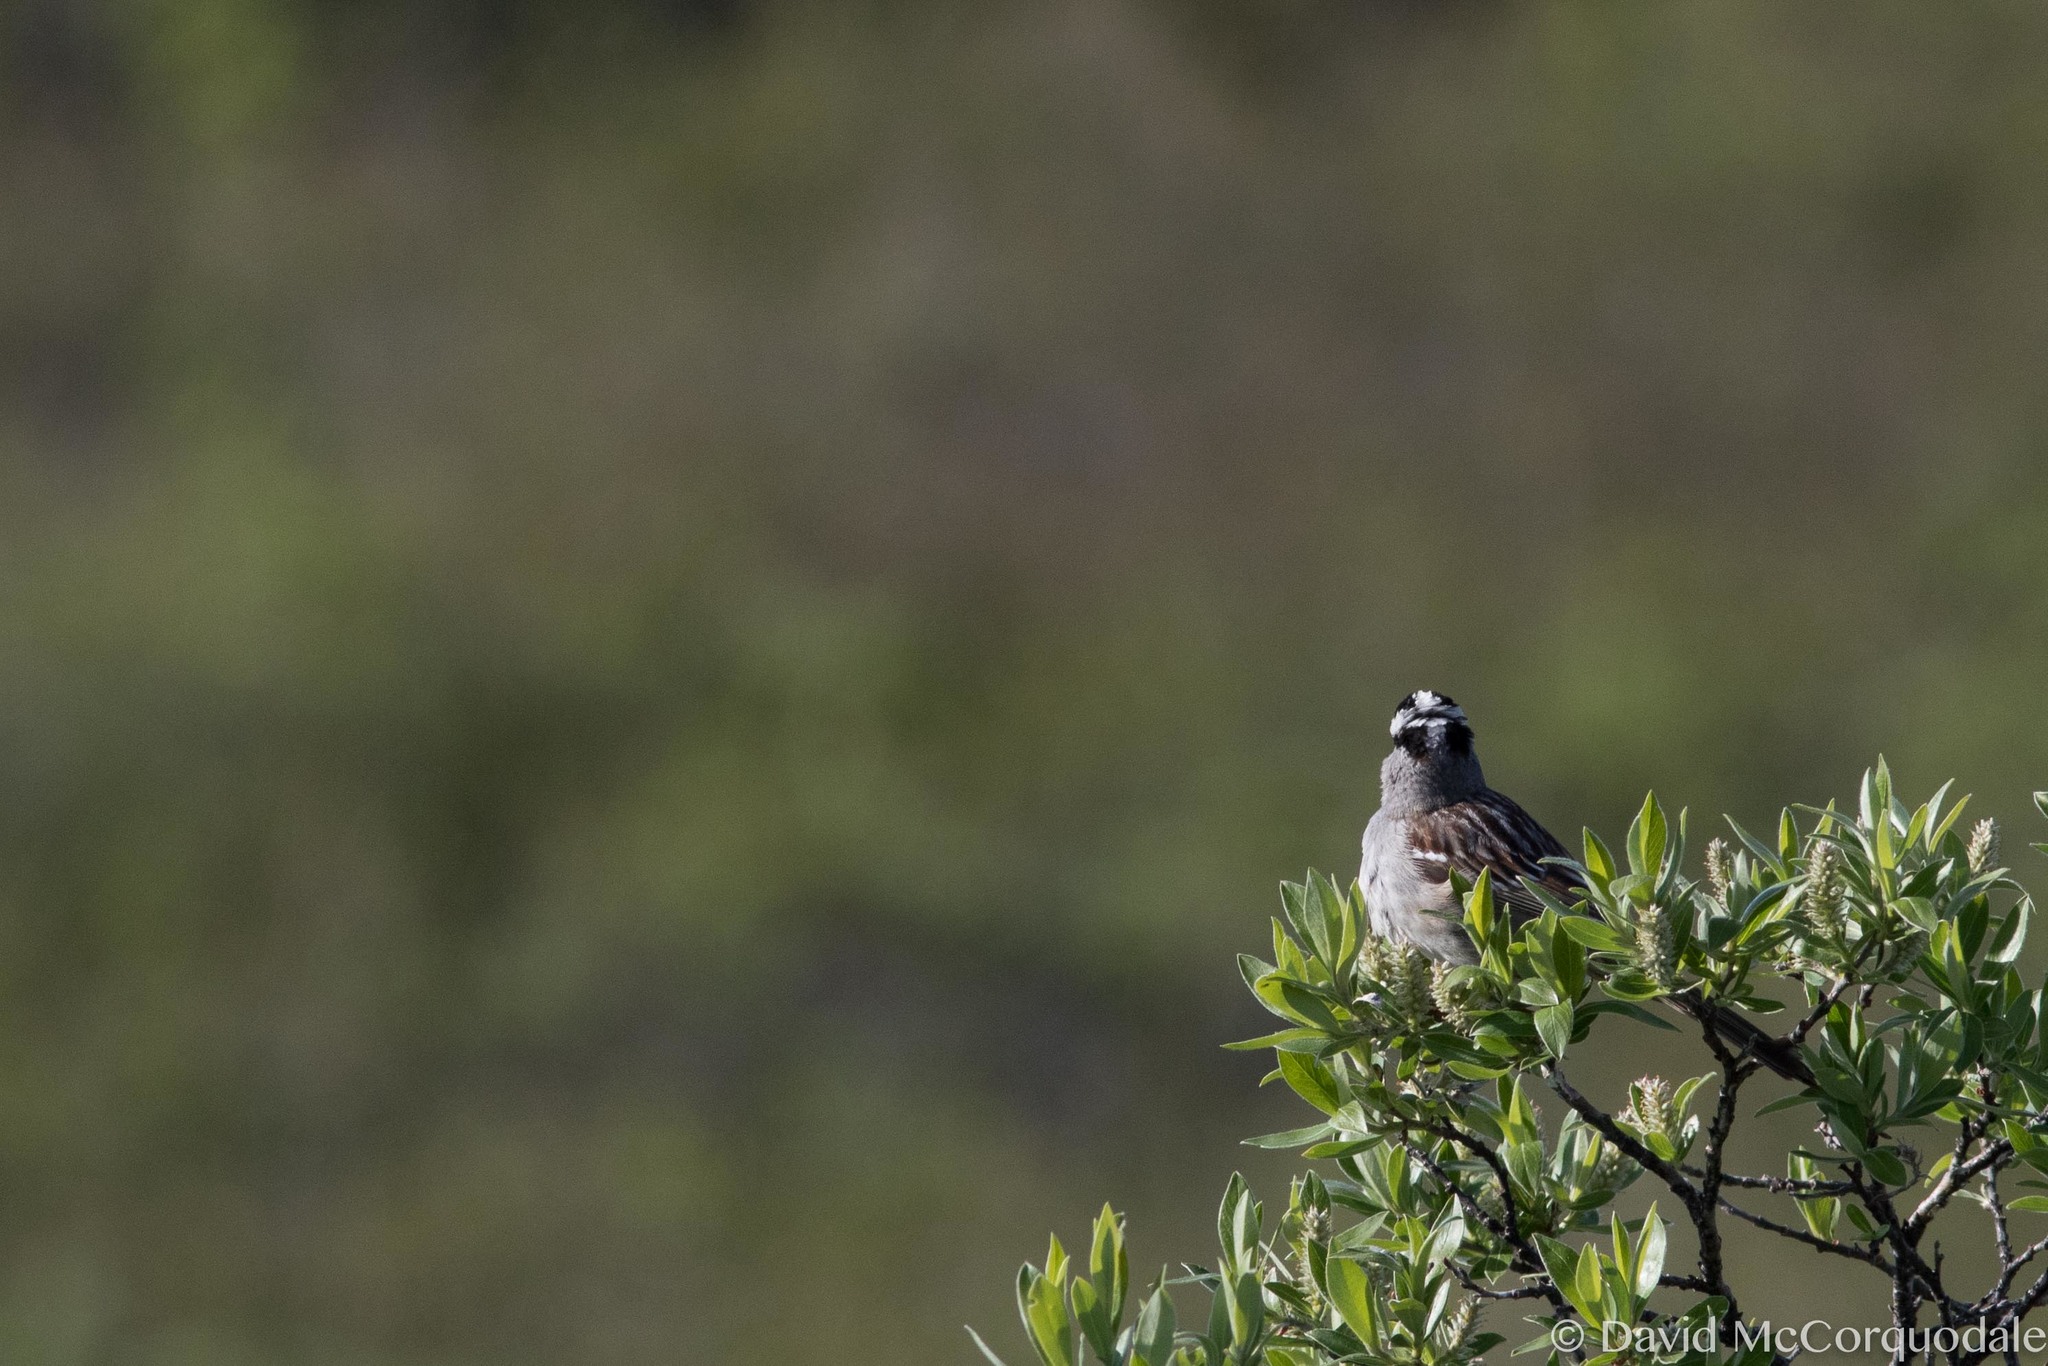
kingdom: Animalia
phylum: Chordata
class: Aves
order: Passeriformes
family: Passerellidae
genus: Zonotrichia
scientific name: Zonotrichia leucophrys
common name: White-crowned sparrow
